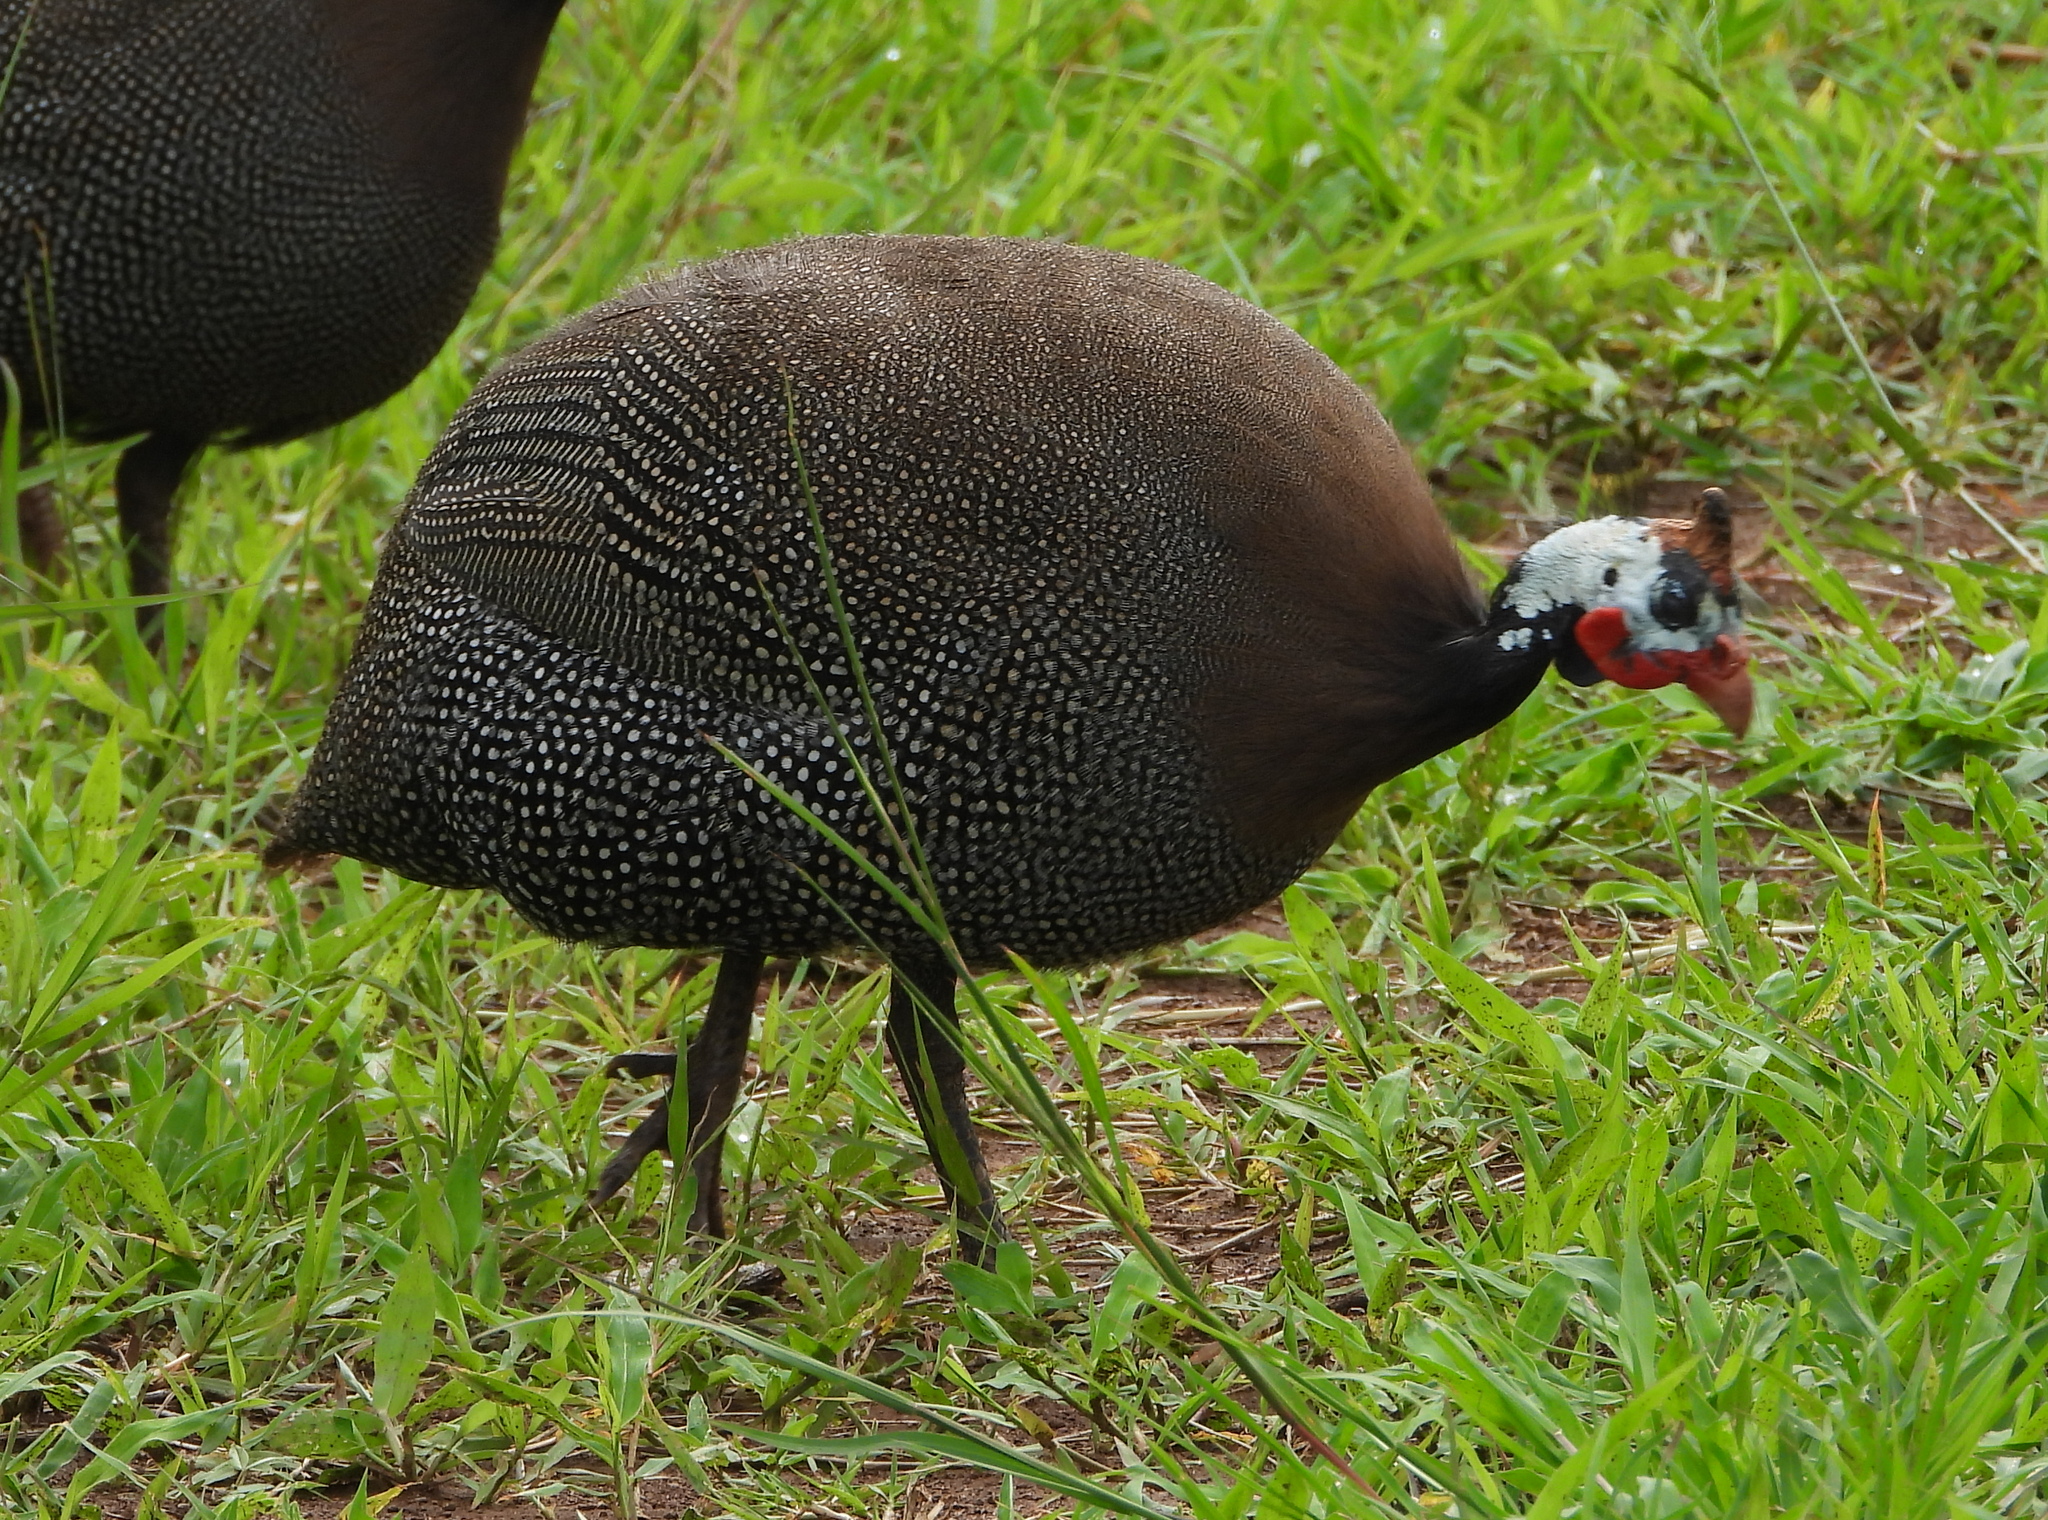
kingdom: Animalia
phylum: Chordata
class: Aves
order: Galliformes
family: Numididae
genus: Numida
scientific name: Numida meleagris
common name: Helmeted guineafowl
